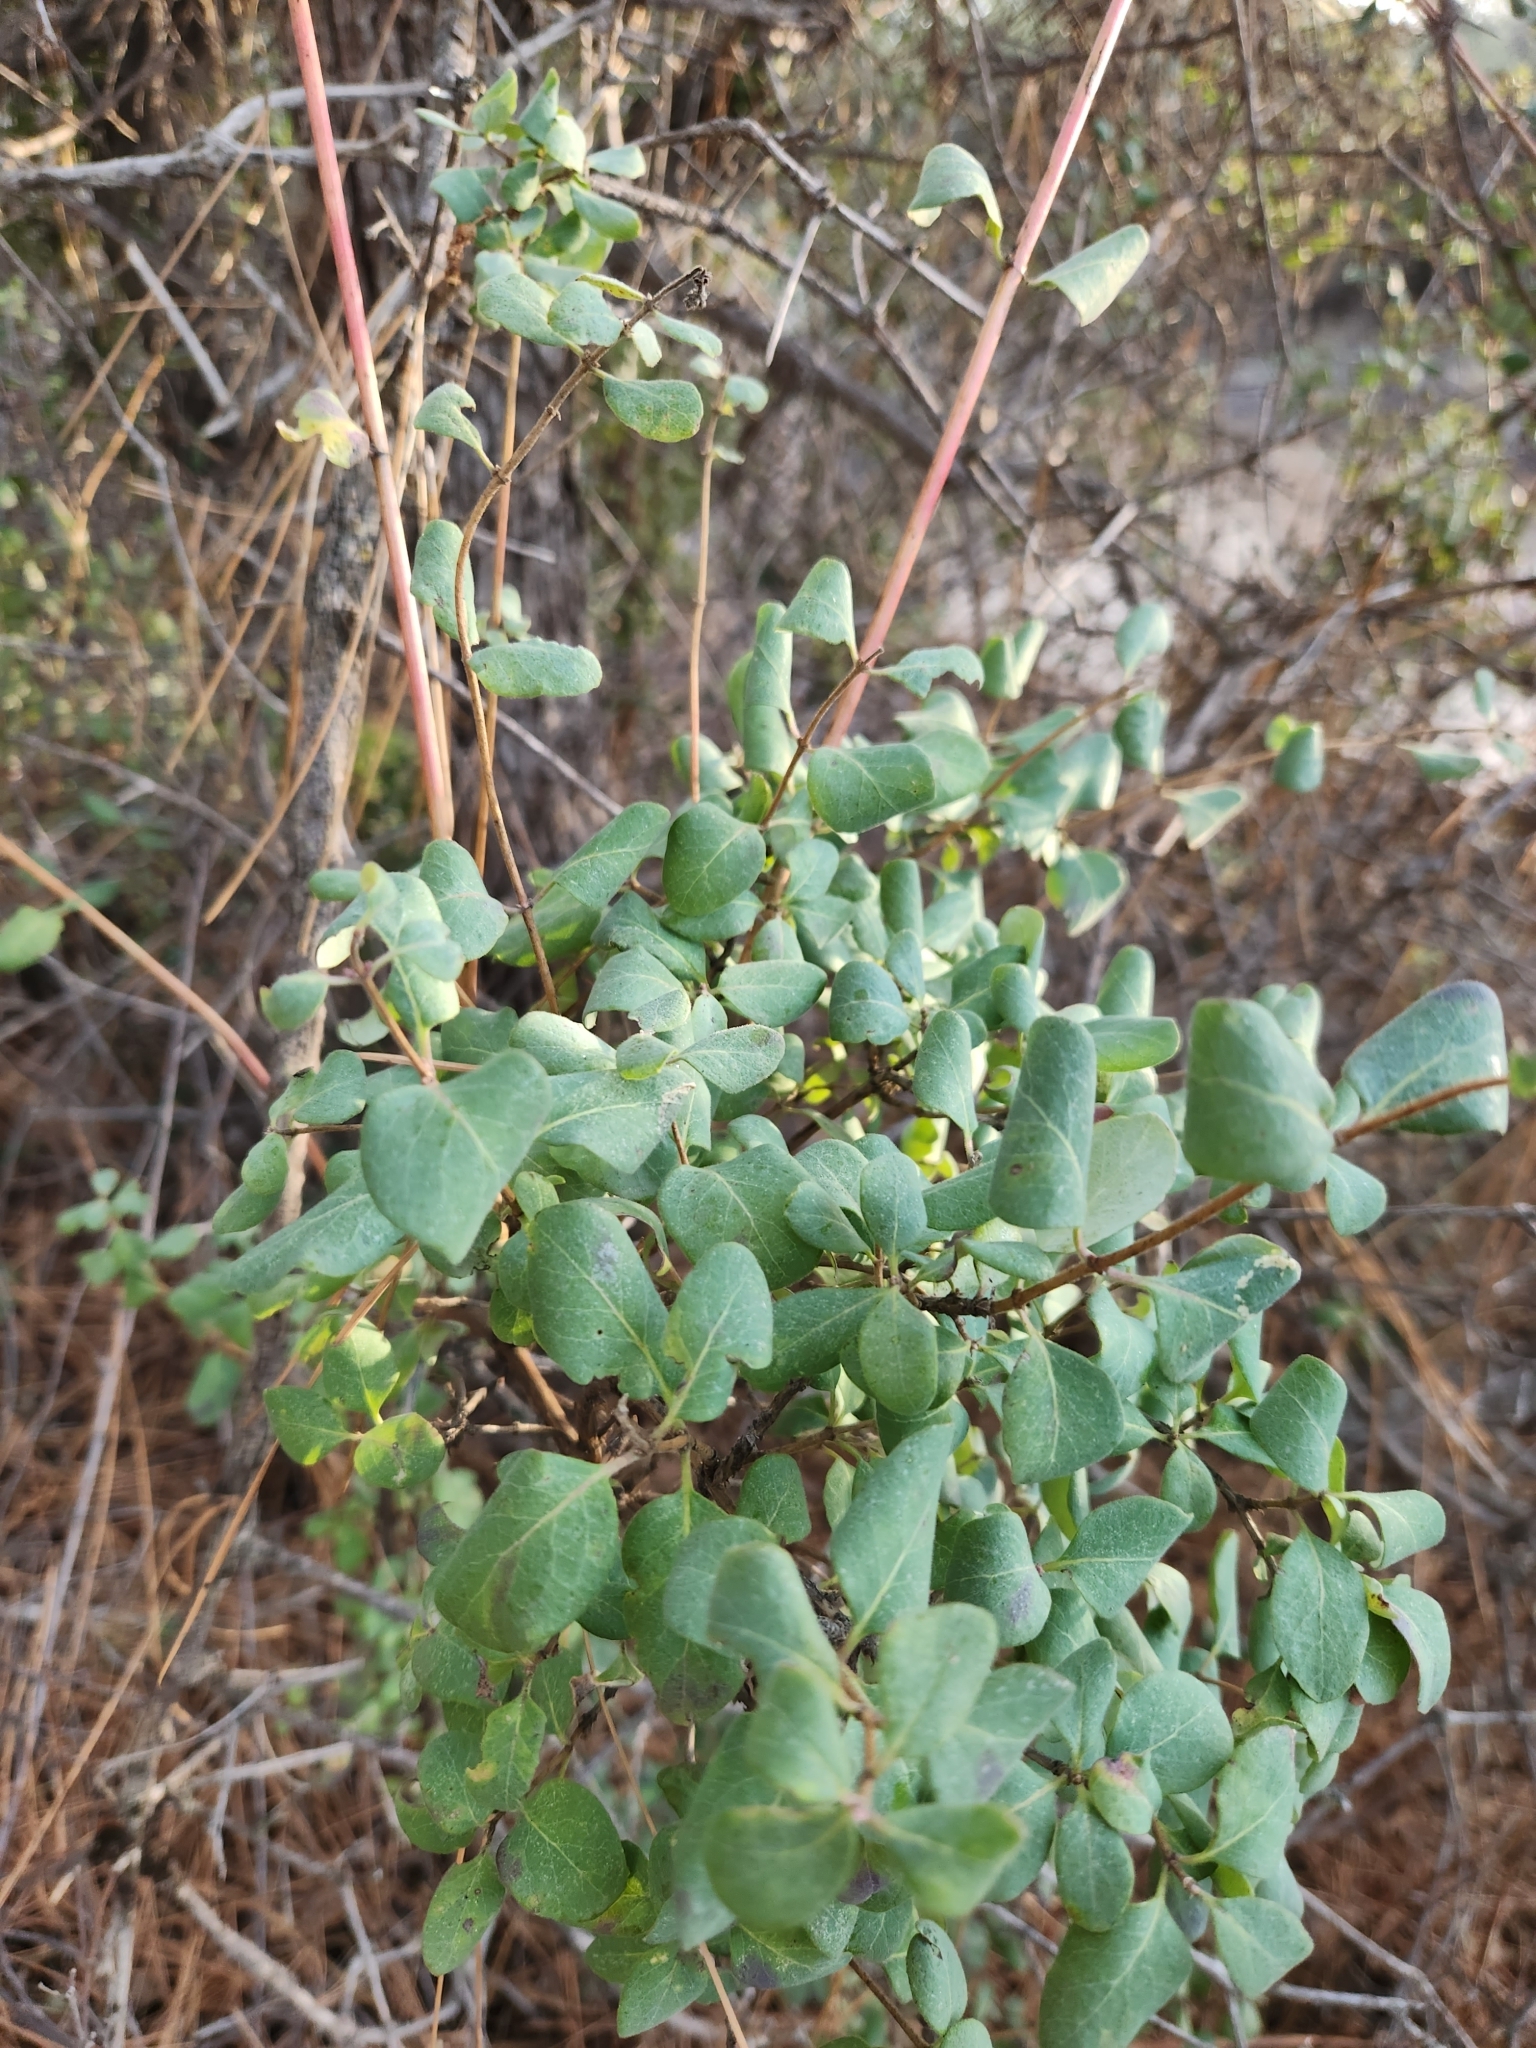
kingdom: Plantae
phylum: Tracheophyta
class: Magnoliopsida
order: Dipsacales
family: Caprifoliaceae
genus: Lonicera
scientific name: Lonicera subspicata
